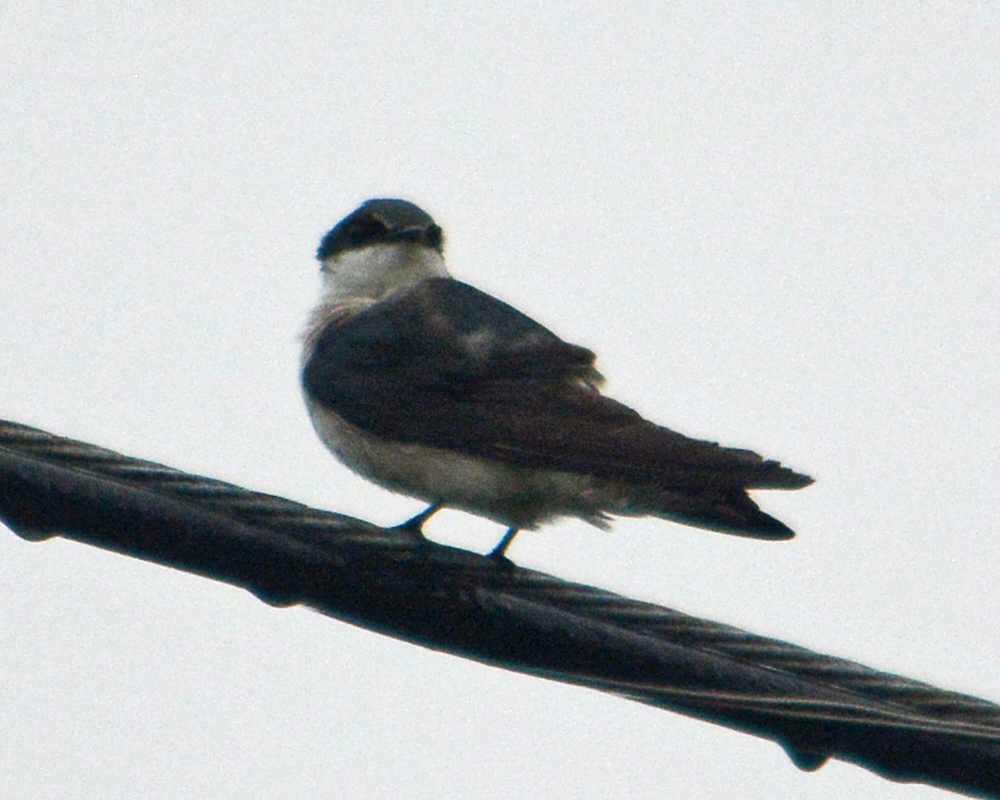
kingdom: Animalia
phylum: Chordata
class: Aves
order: Passeriformes
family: Hirundinidae
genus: Tachycineta
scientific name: Tachycineta albilinea
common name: Mangrove swallow
